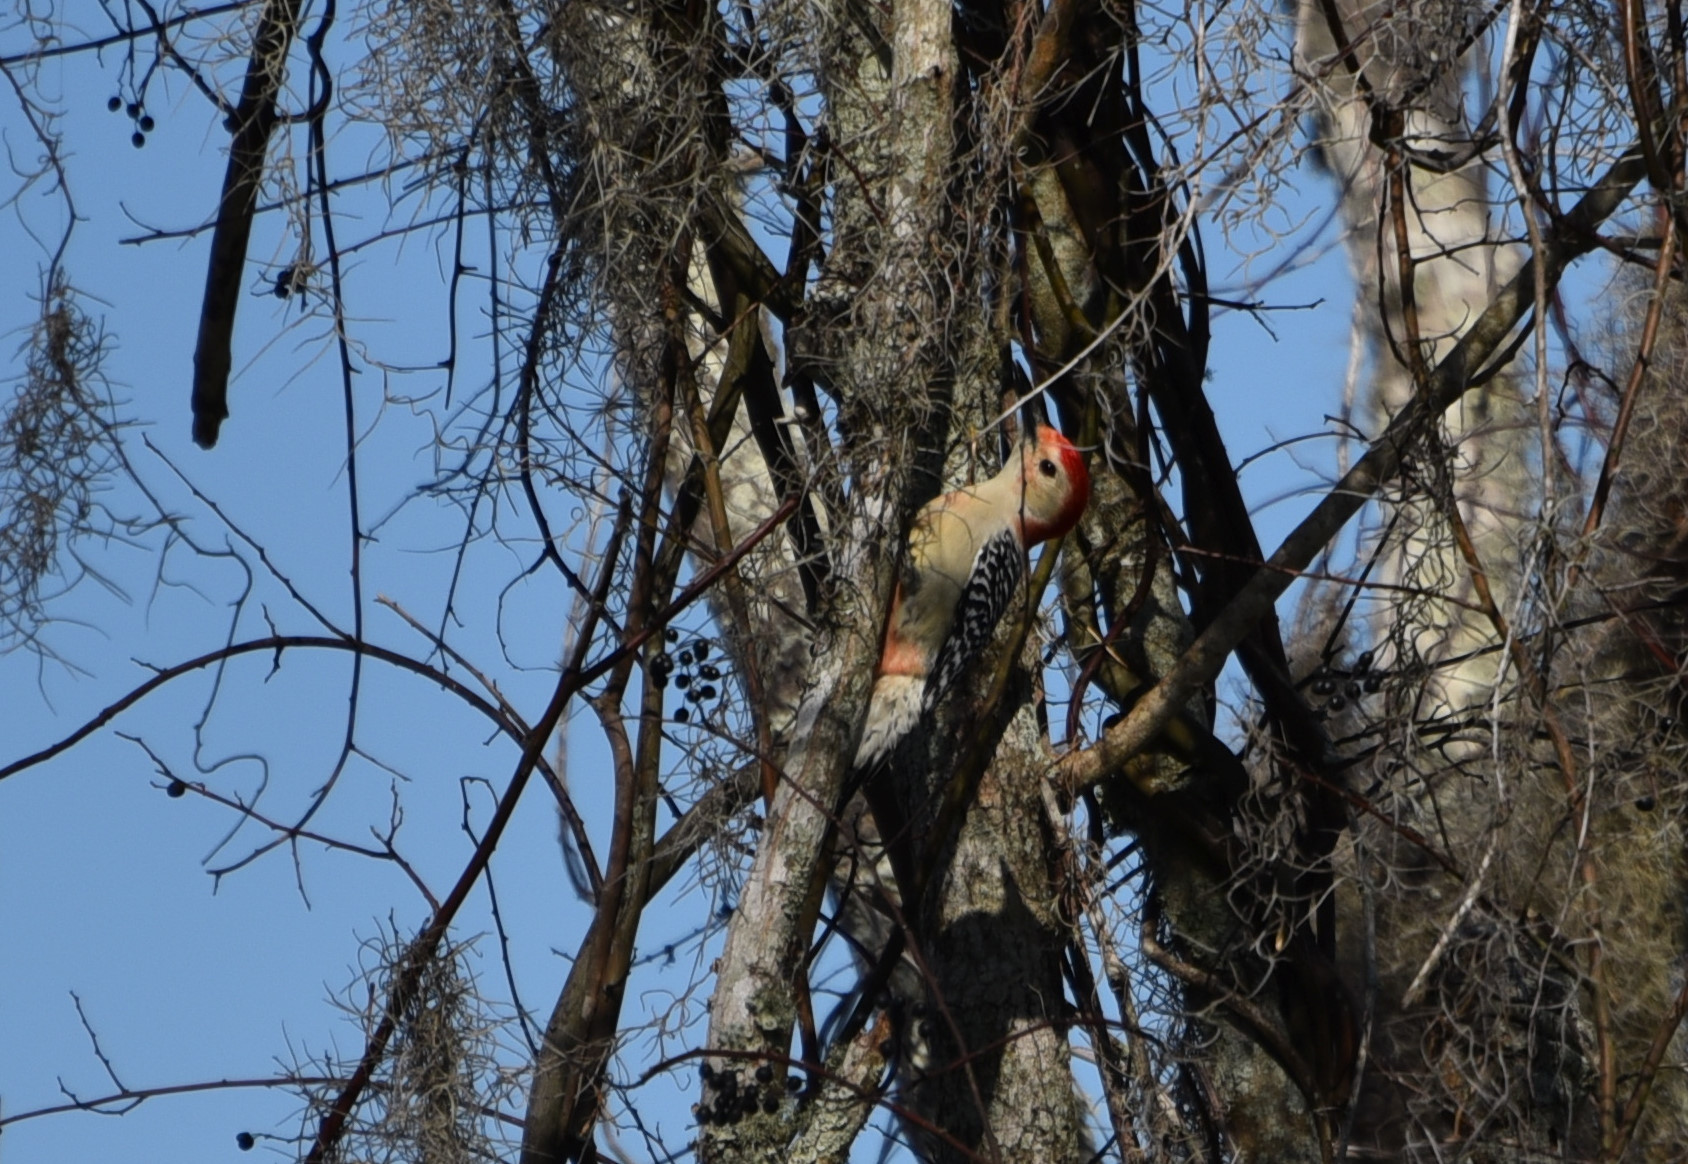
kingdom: Animalia
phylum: Chordata
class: Aves
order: Piciformes
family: Picidae
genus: Melanerpes
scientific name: Melanerpes carolinus
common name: Red-bellied woodpecker
